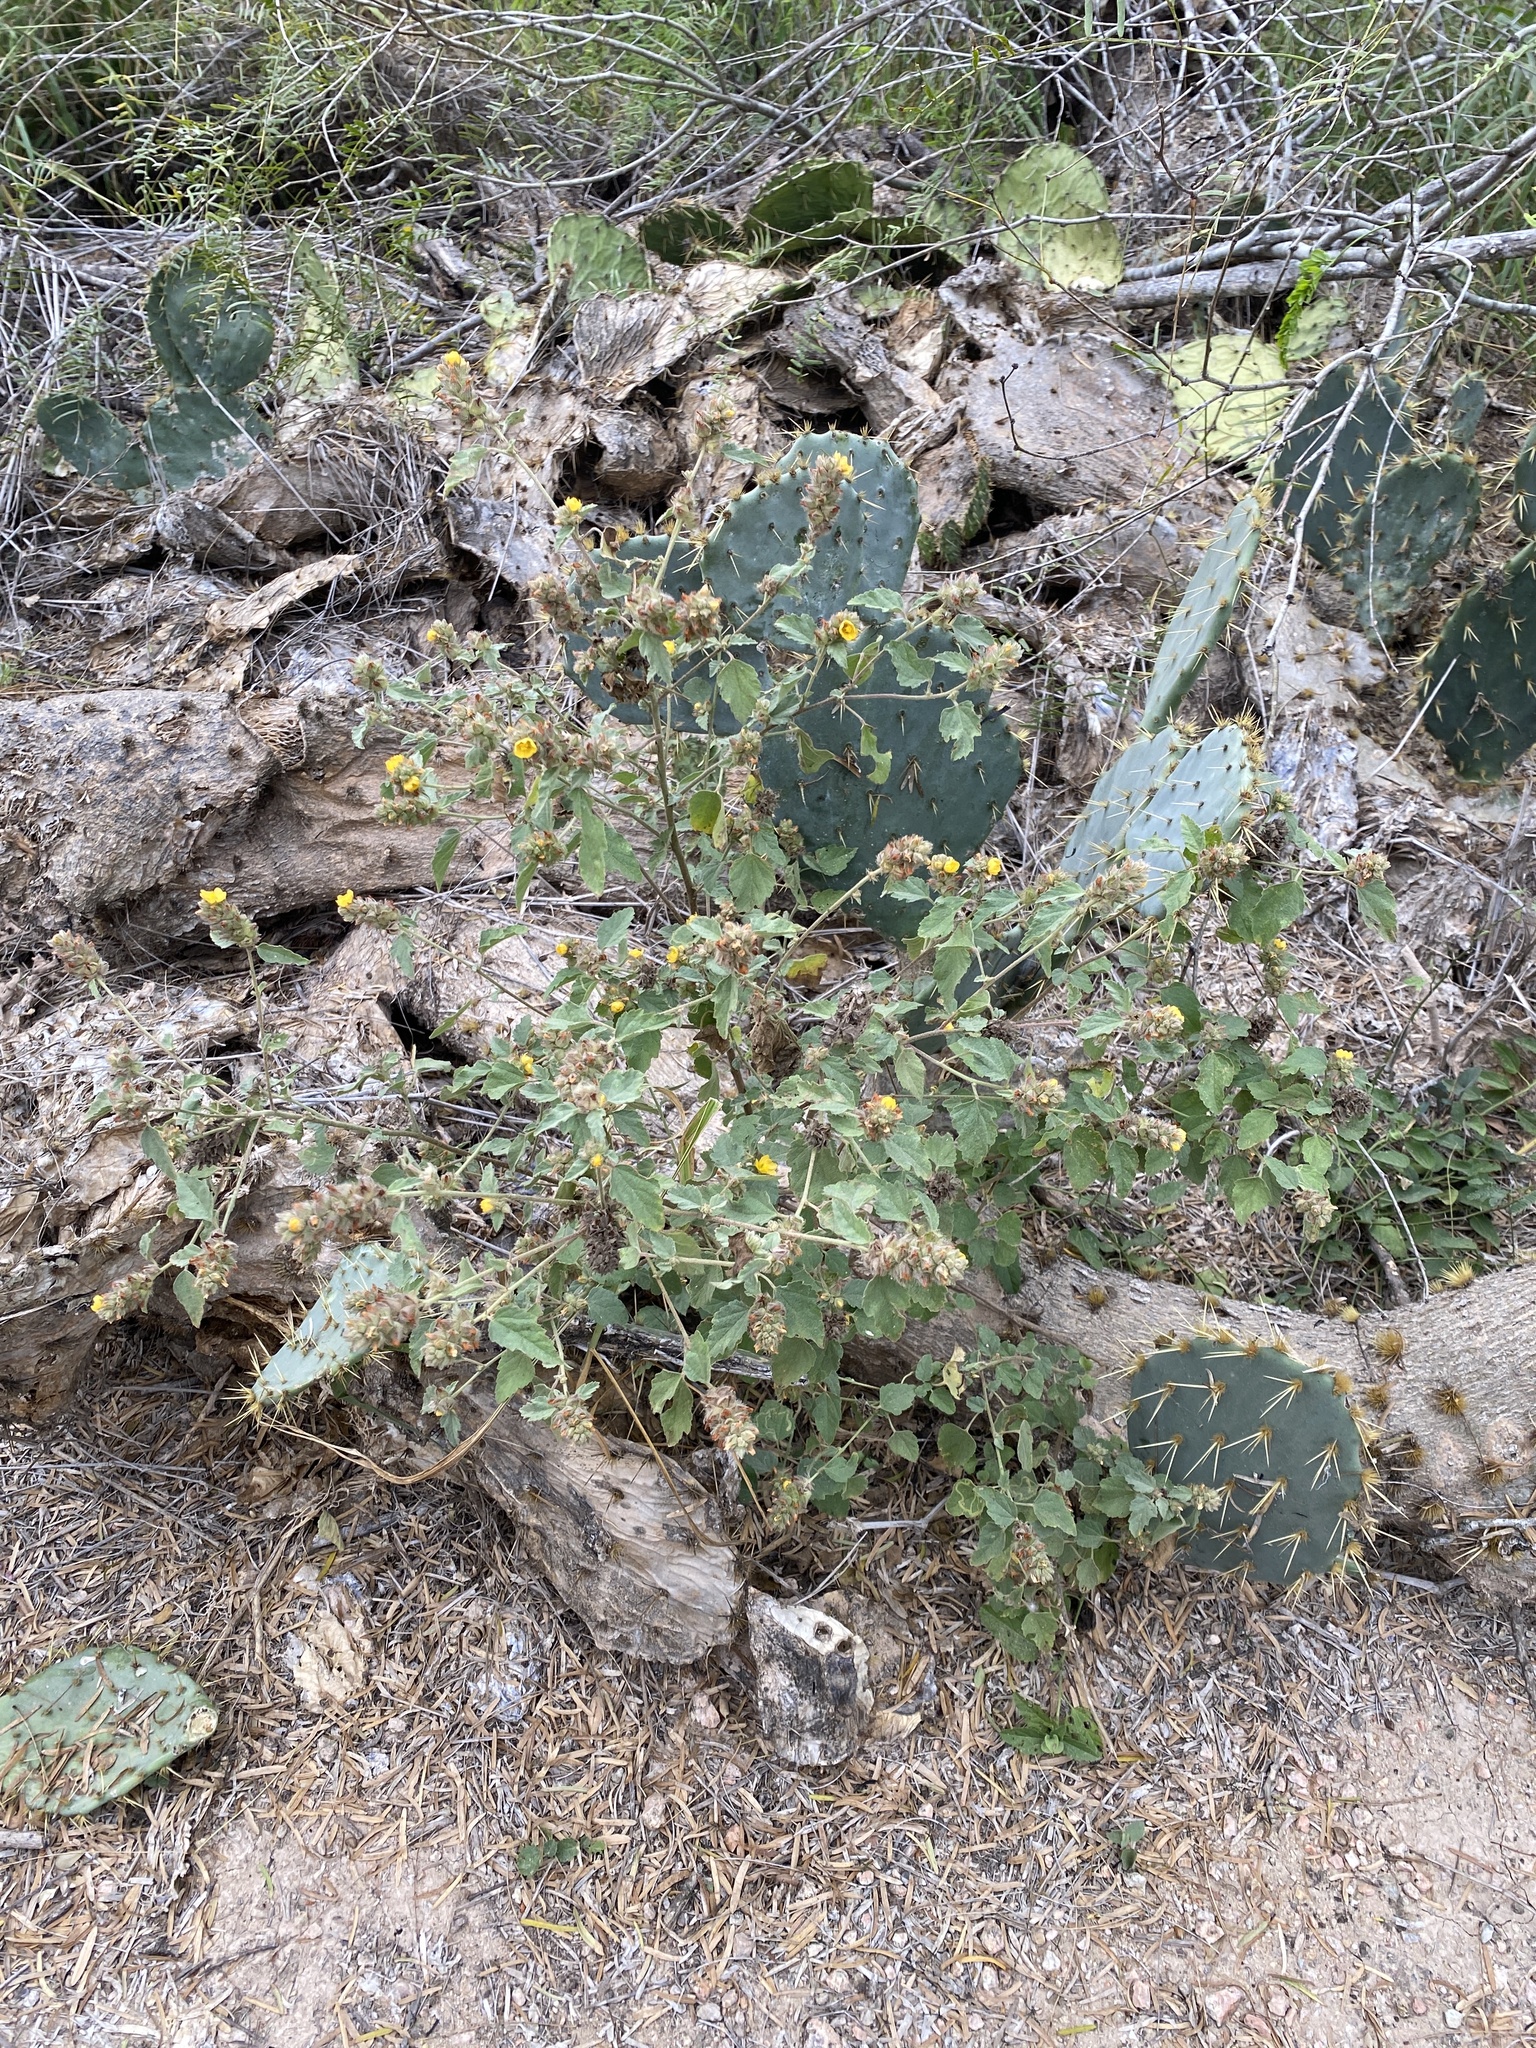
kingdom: Plantae
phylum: Tracheophyta
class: Magnoliopsida
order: Malvales
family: Malvaceae
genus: Malvastrum
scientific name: Malvastrum americanum
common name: Spiked malvastrum
